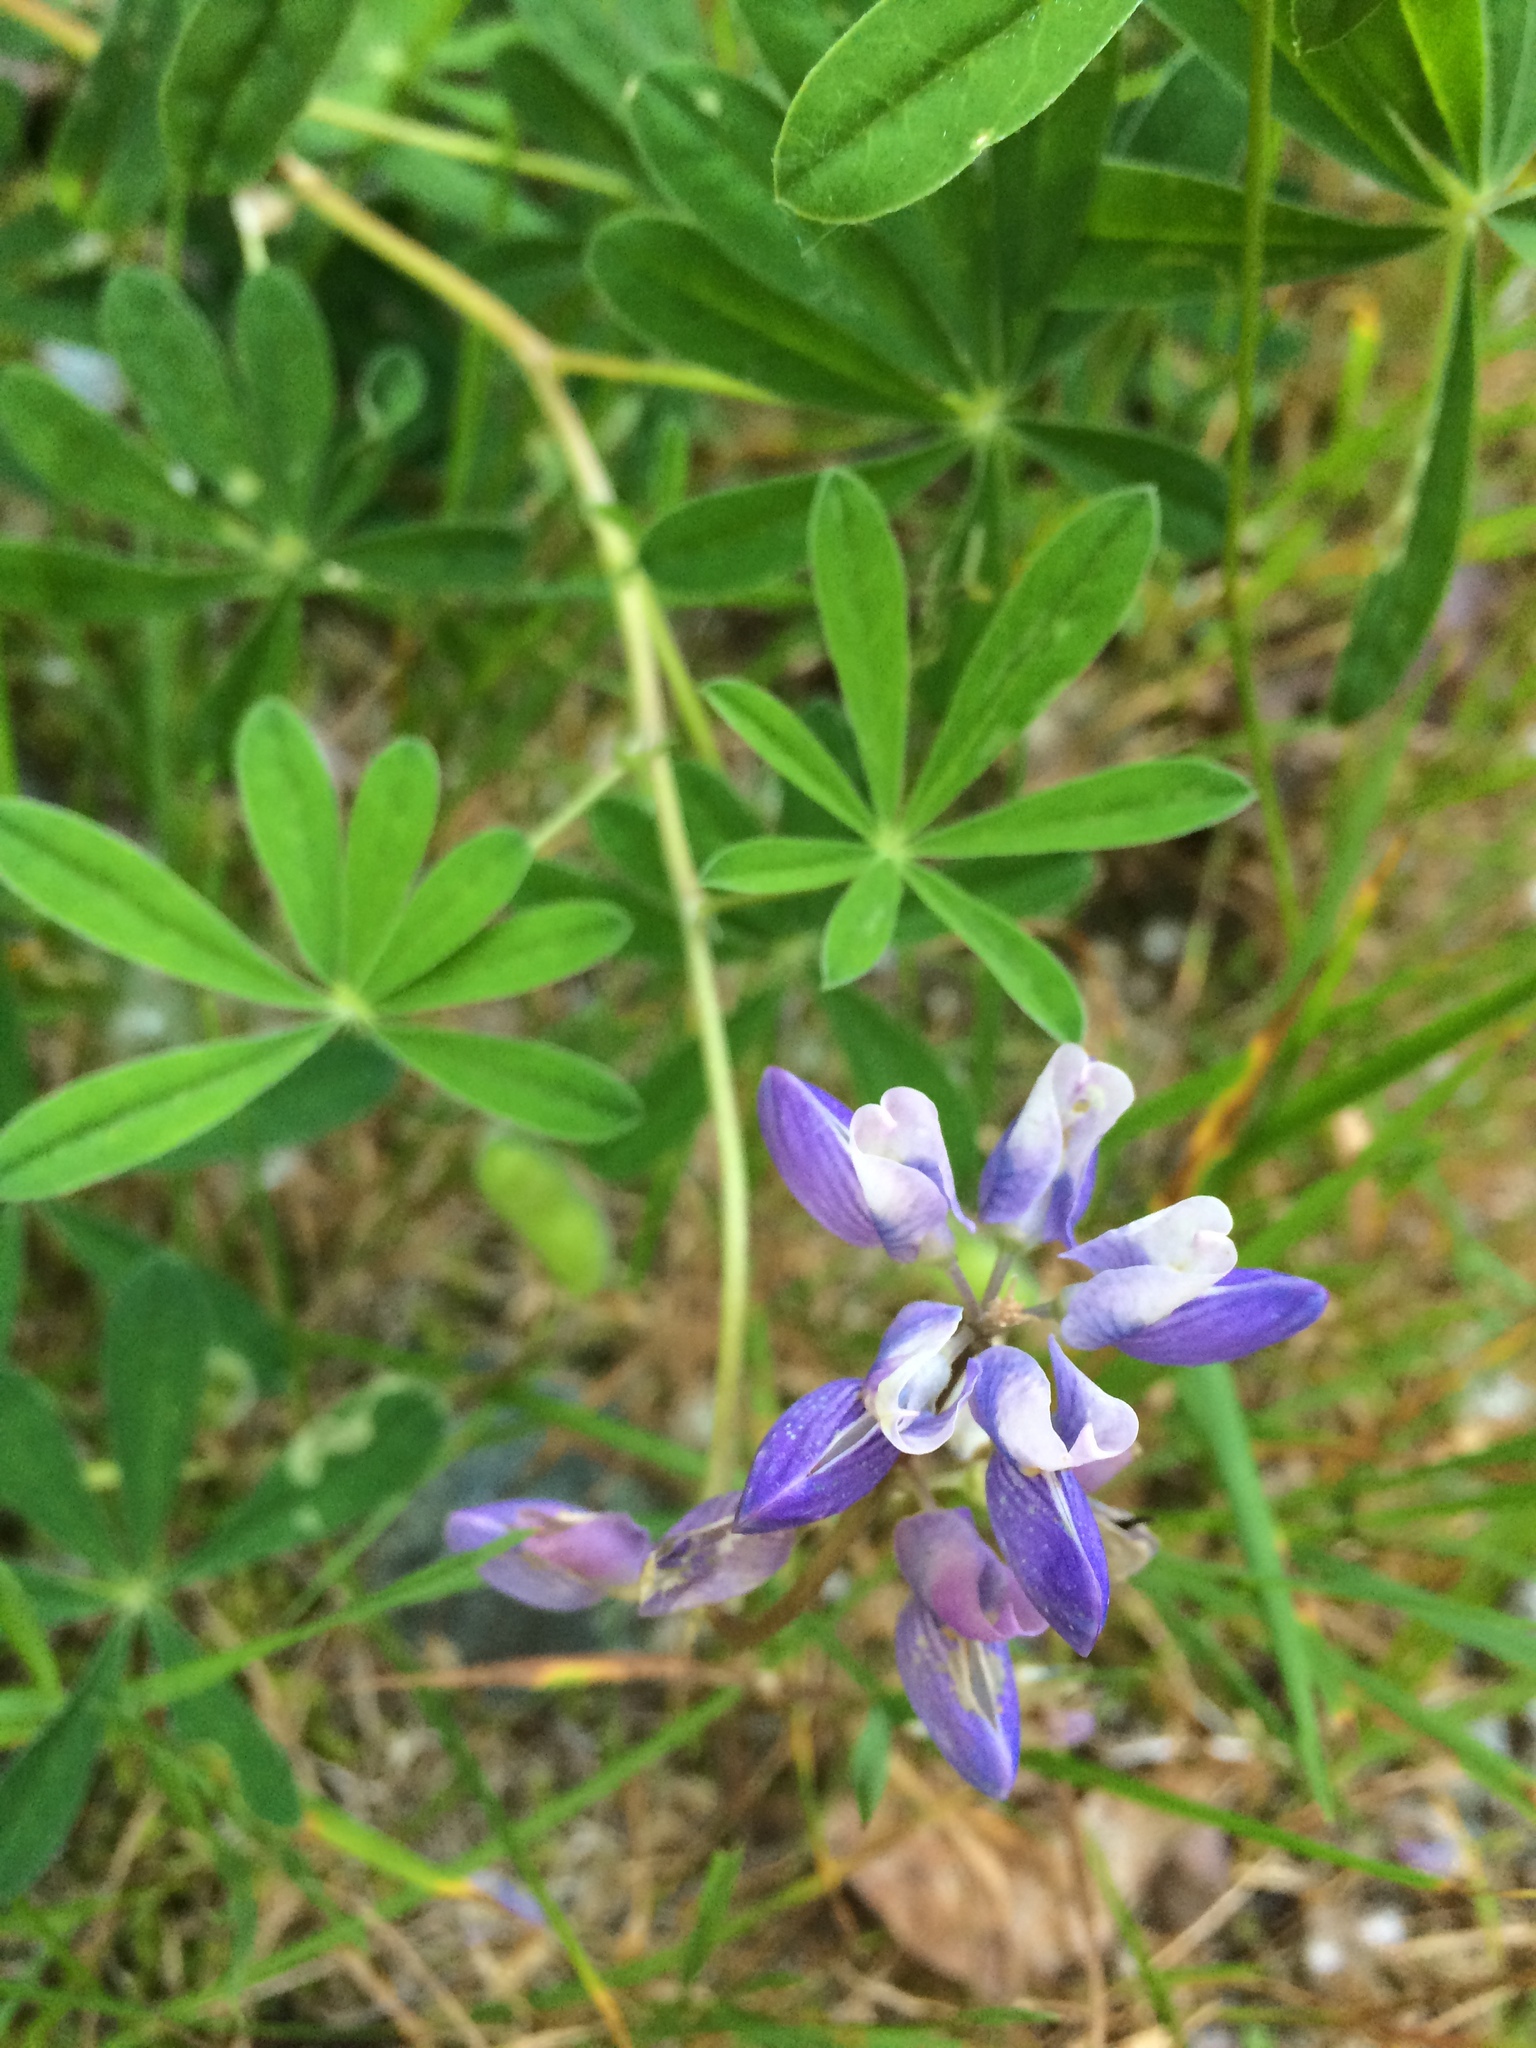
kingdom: Plantae
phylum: Tracheophyta
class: Magnoliopsida
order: Fabales
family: Fabaceae
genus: Lupinus
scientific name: Lupinus arcticus
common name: Arctic lupine
